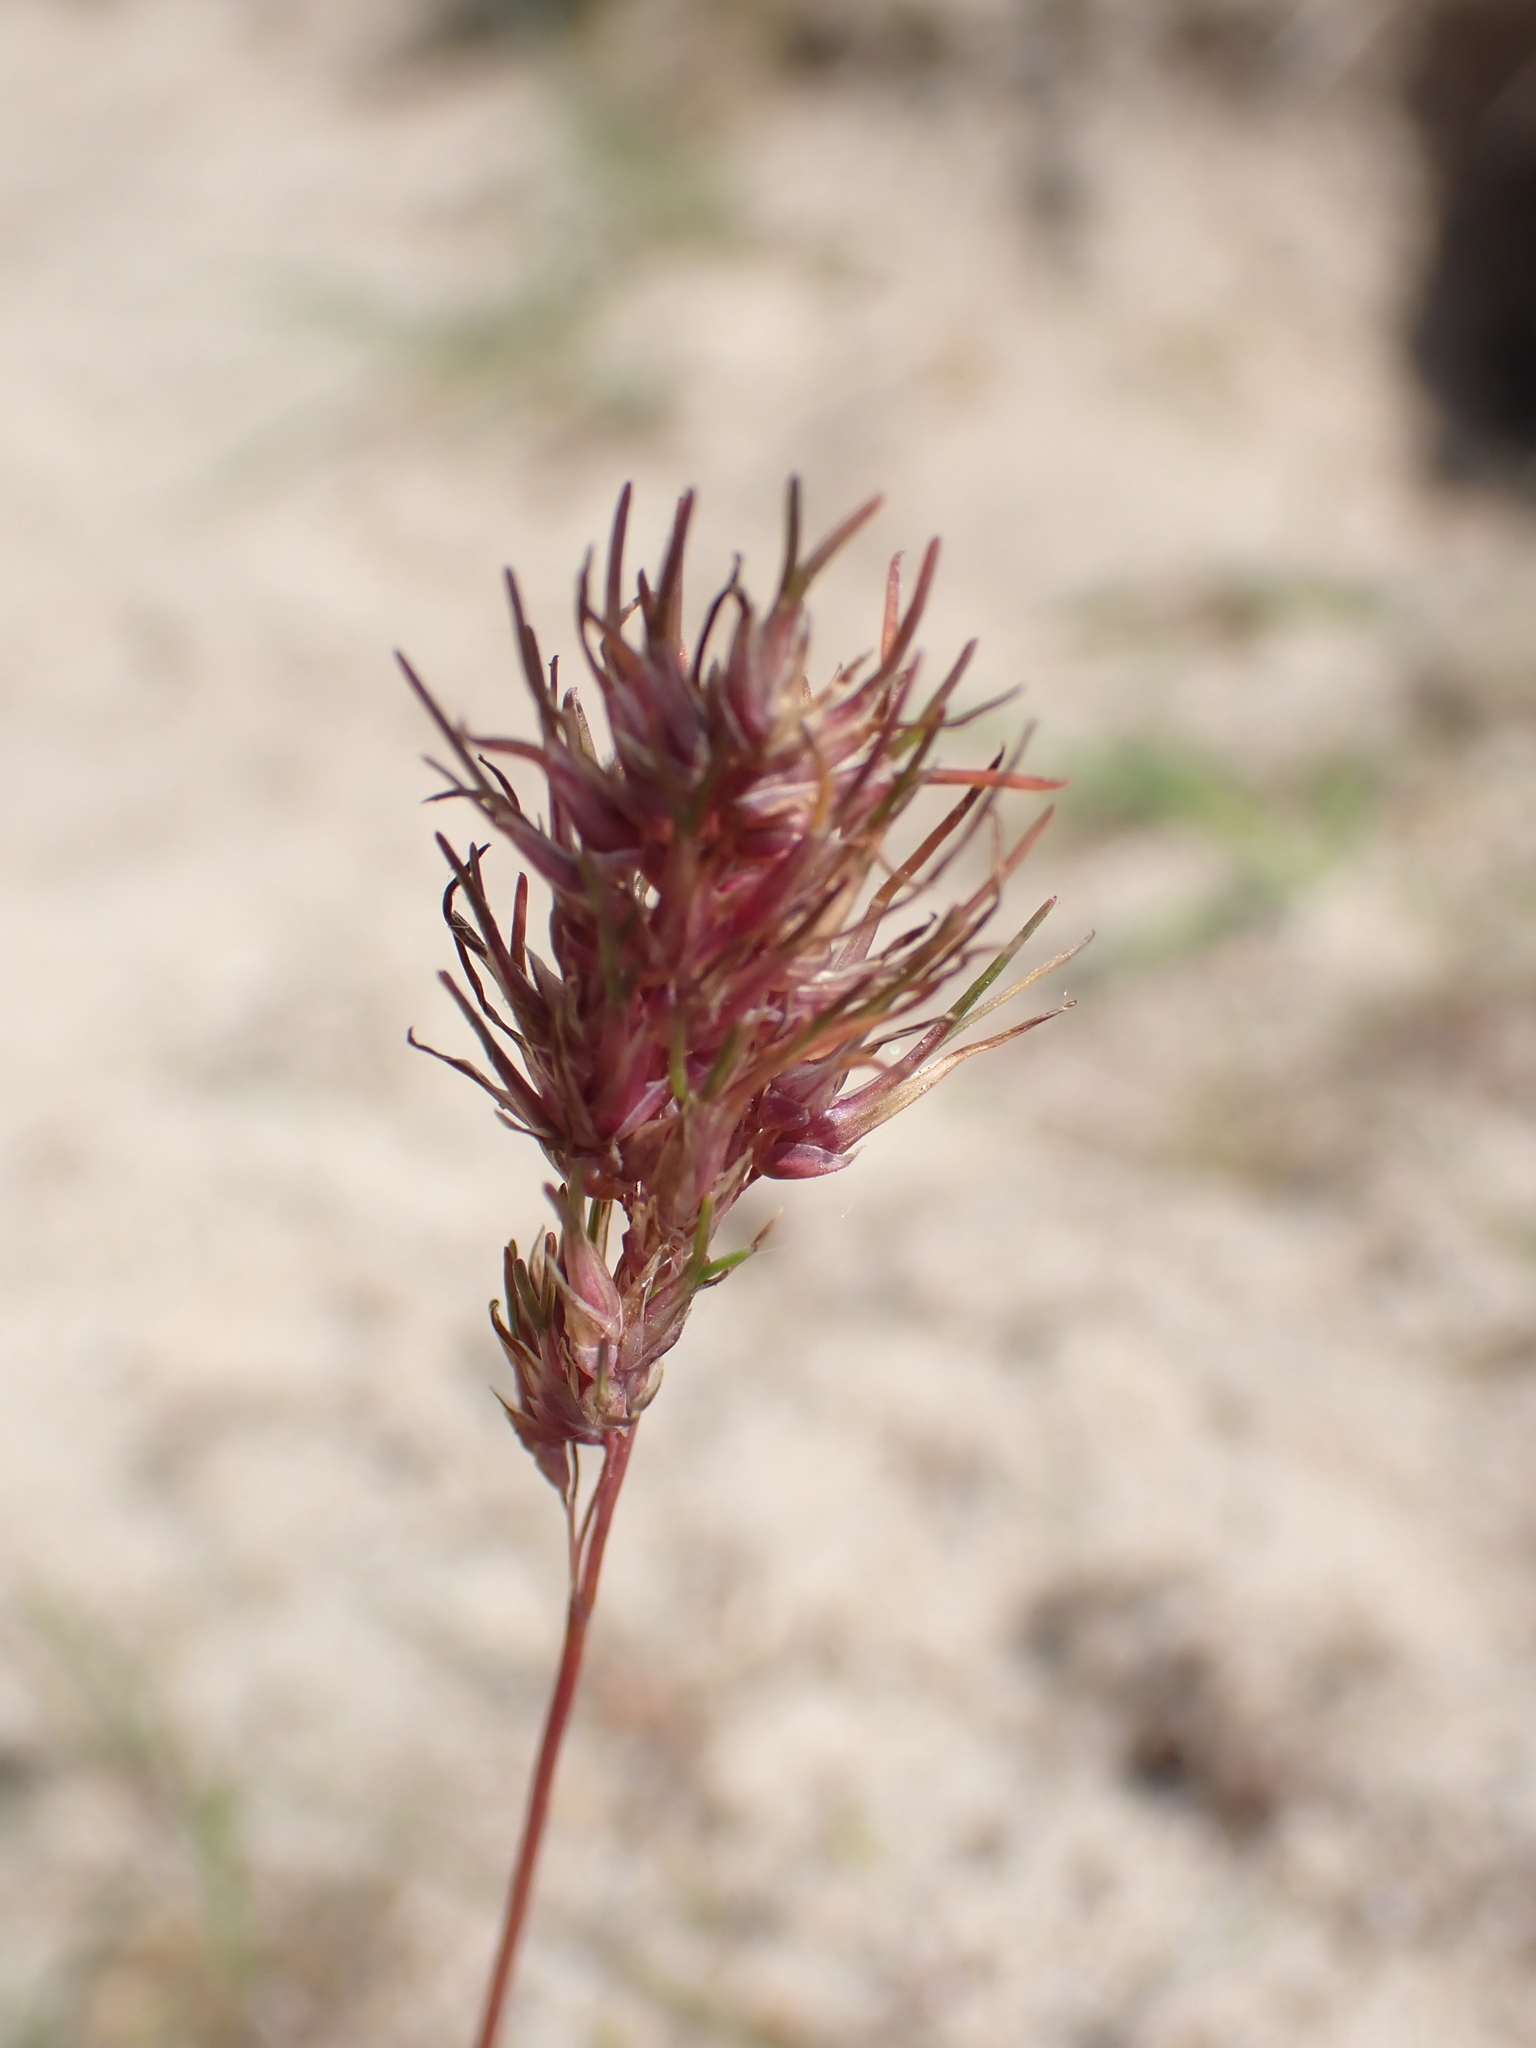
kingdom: Plantae
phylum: Tracheophyta
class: Liliopsida
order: Poales
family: Poaceae
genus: Poa
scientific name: Poa bulbosa
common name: Bulbous bluegrass
